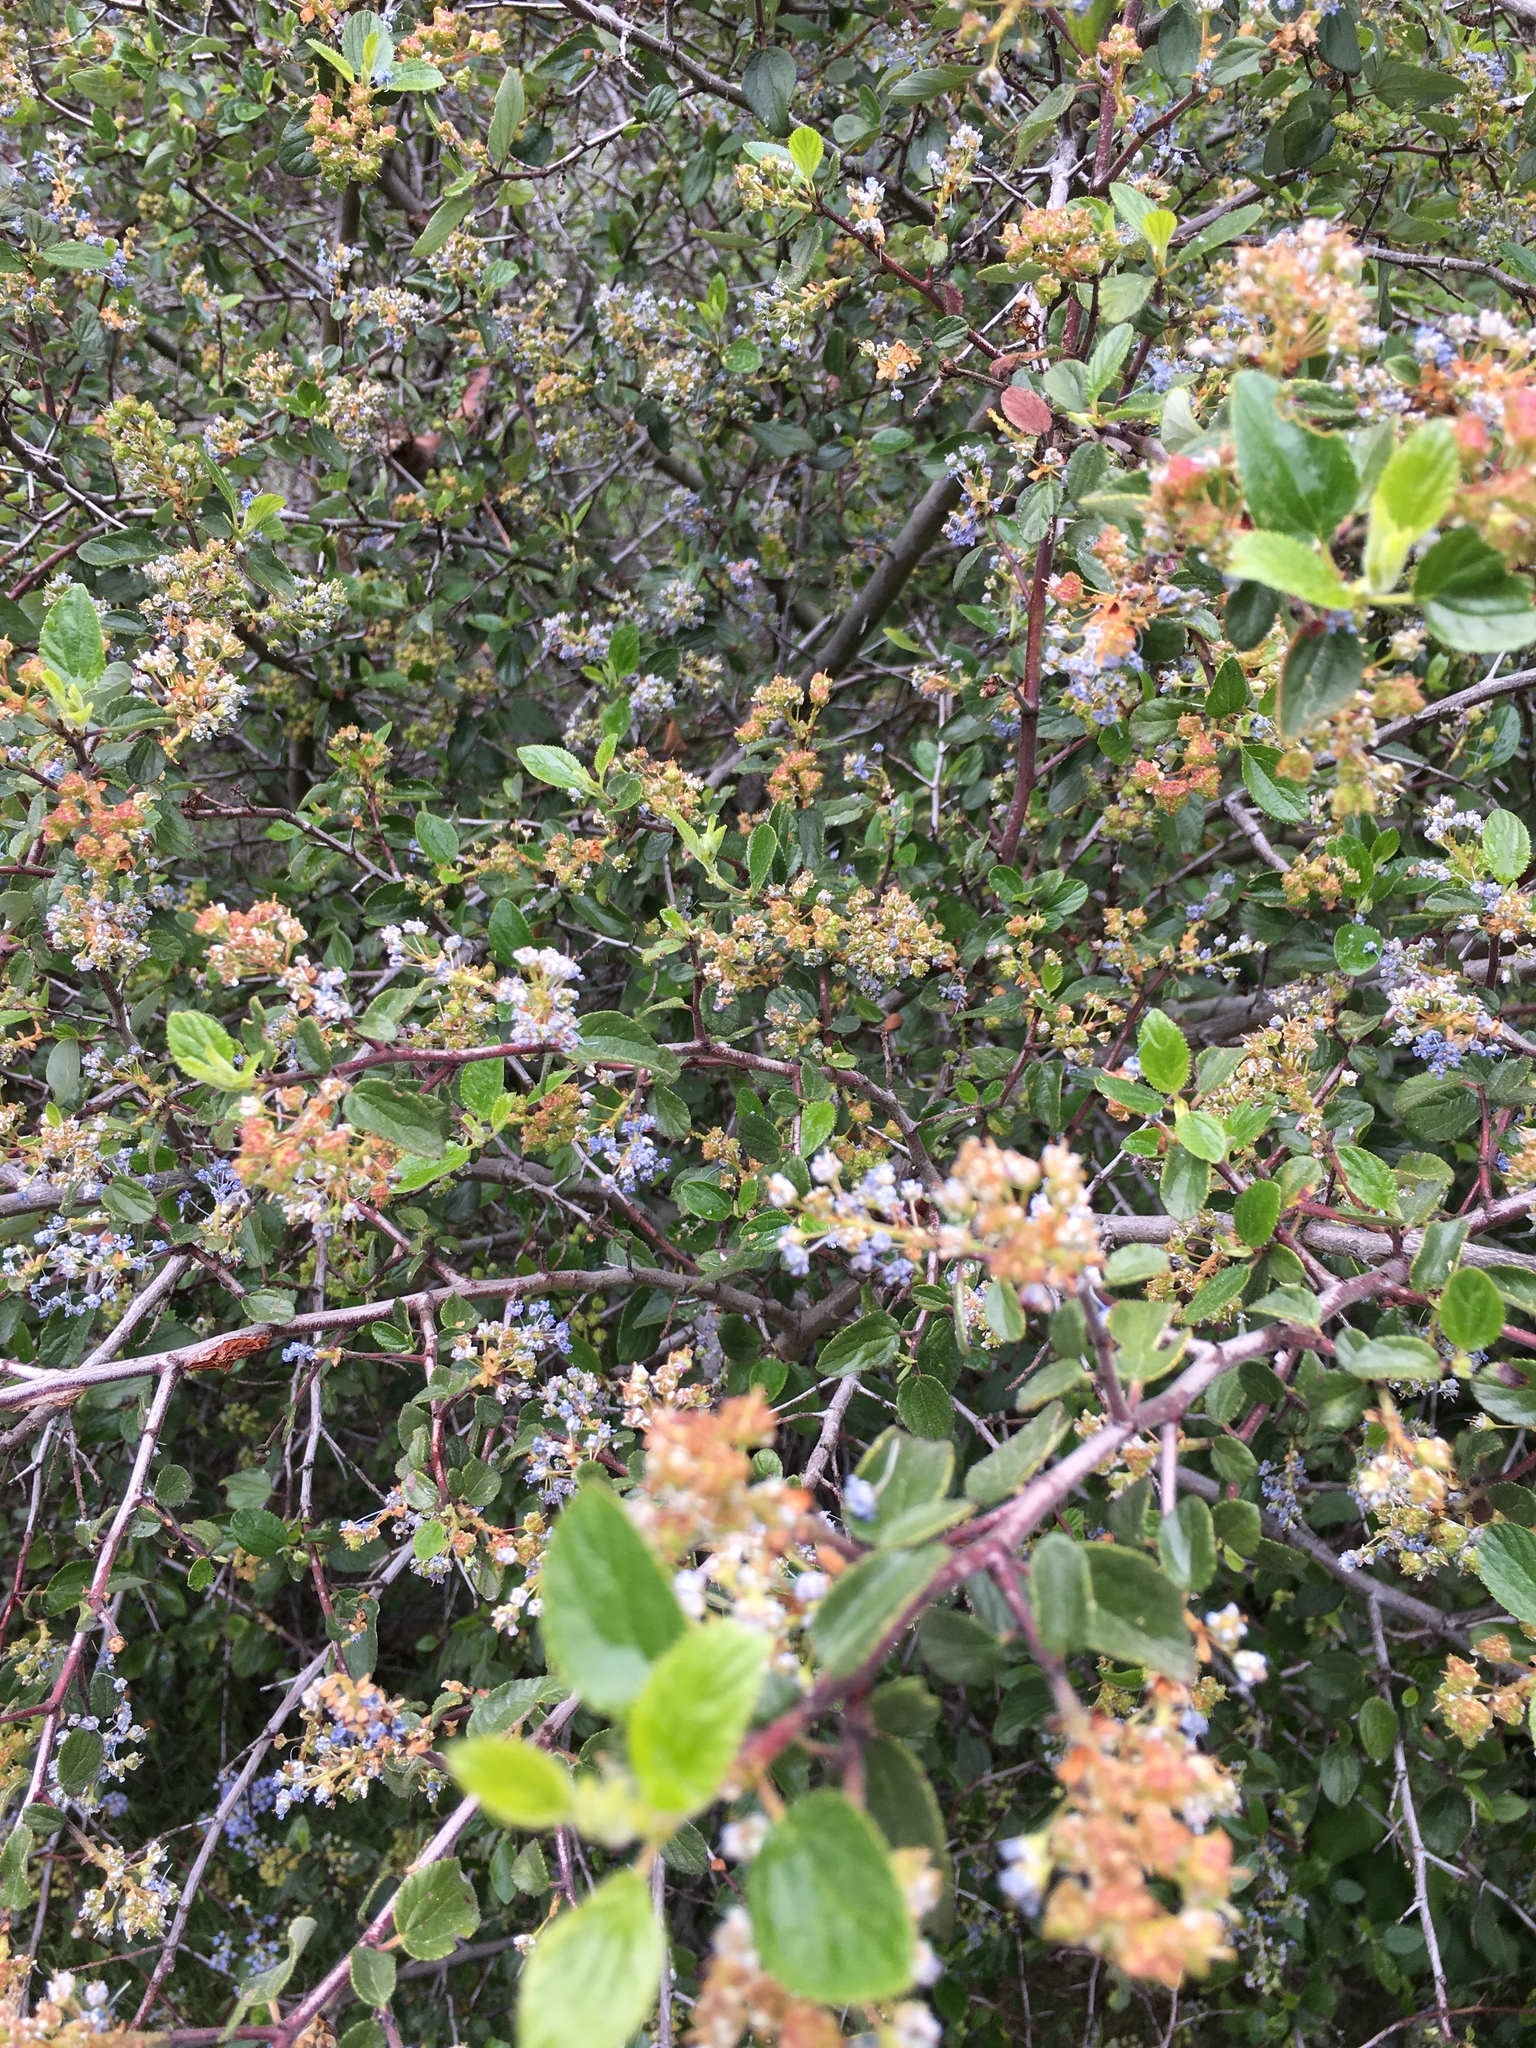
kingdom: Plantae
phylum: Tracheophyta
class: Magnoliopsida
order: Rosales
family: Rhamnaceae
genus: Ceanothus
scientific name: Ceanothus oliganthus
